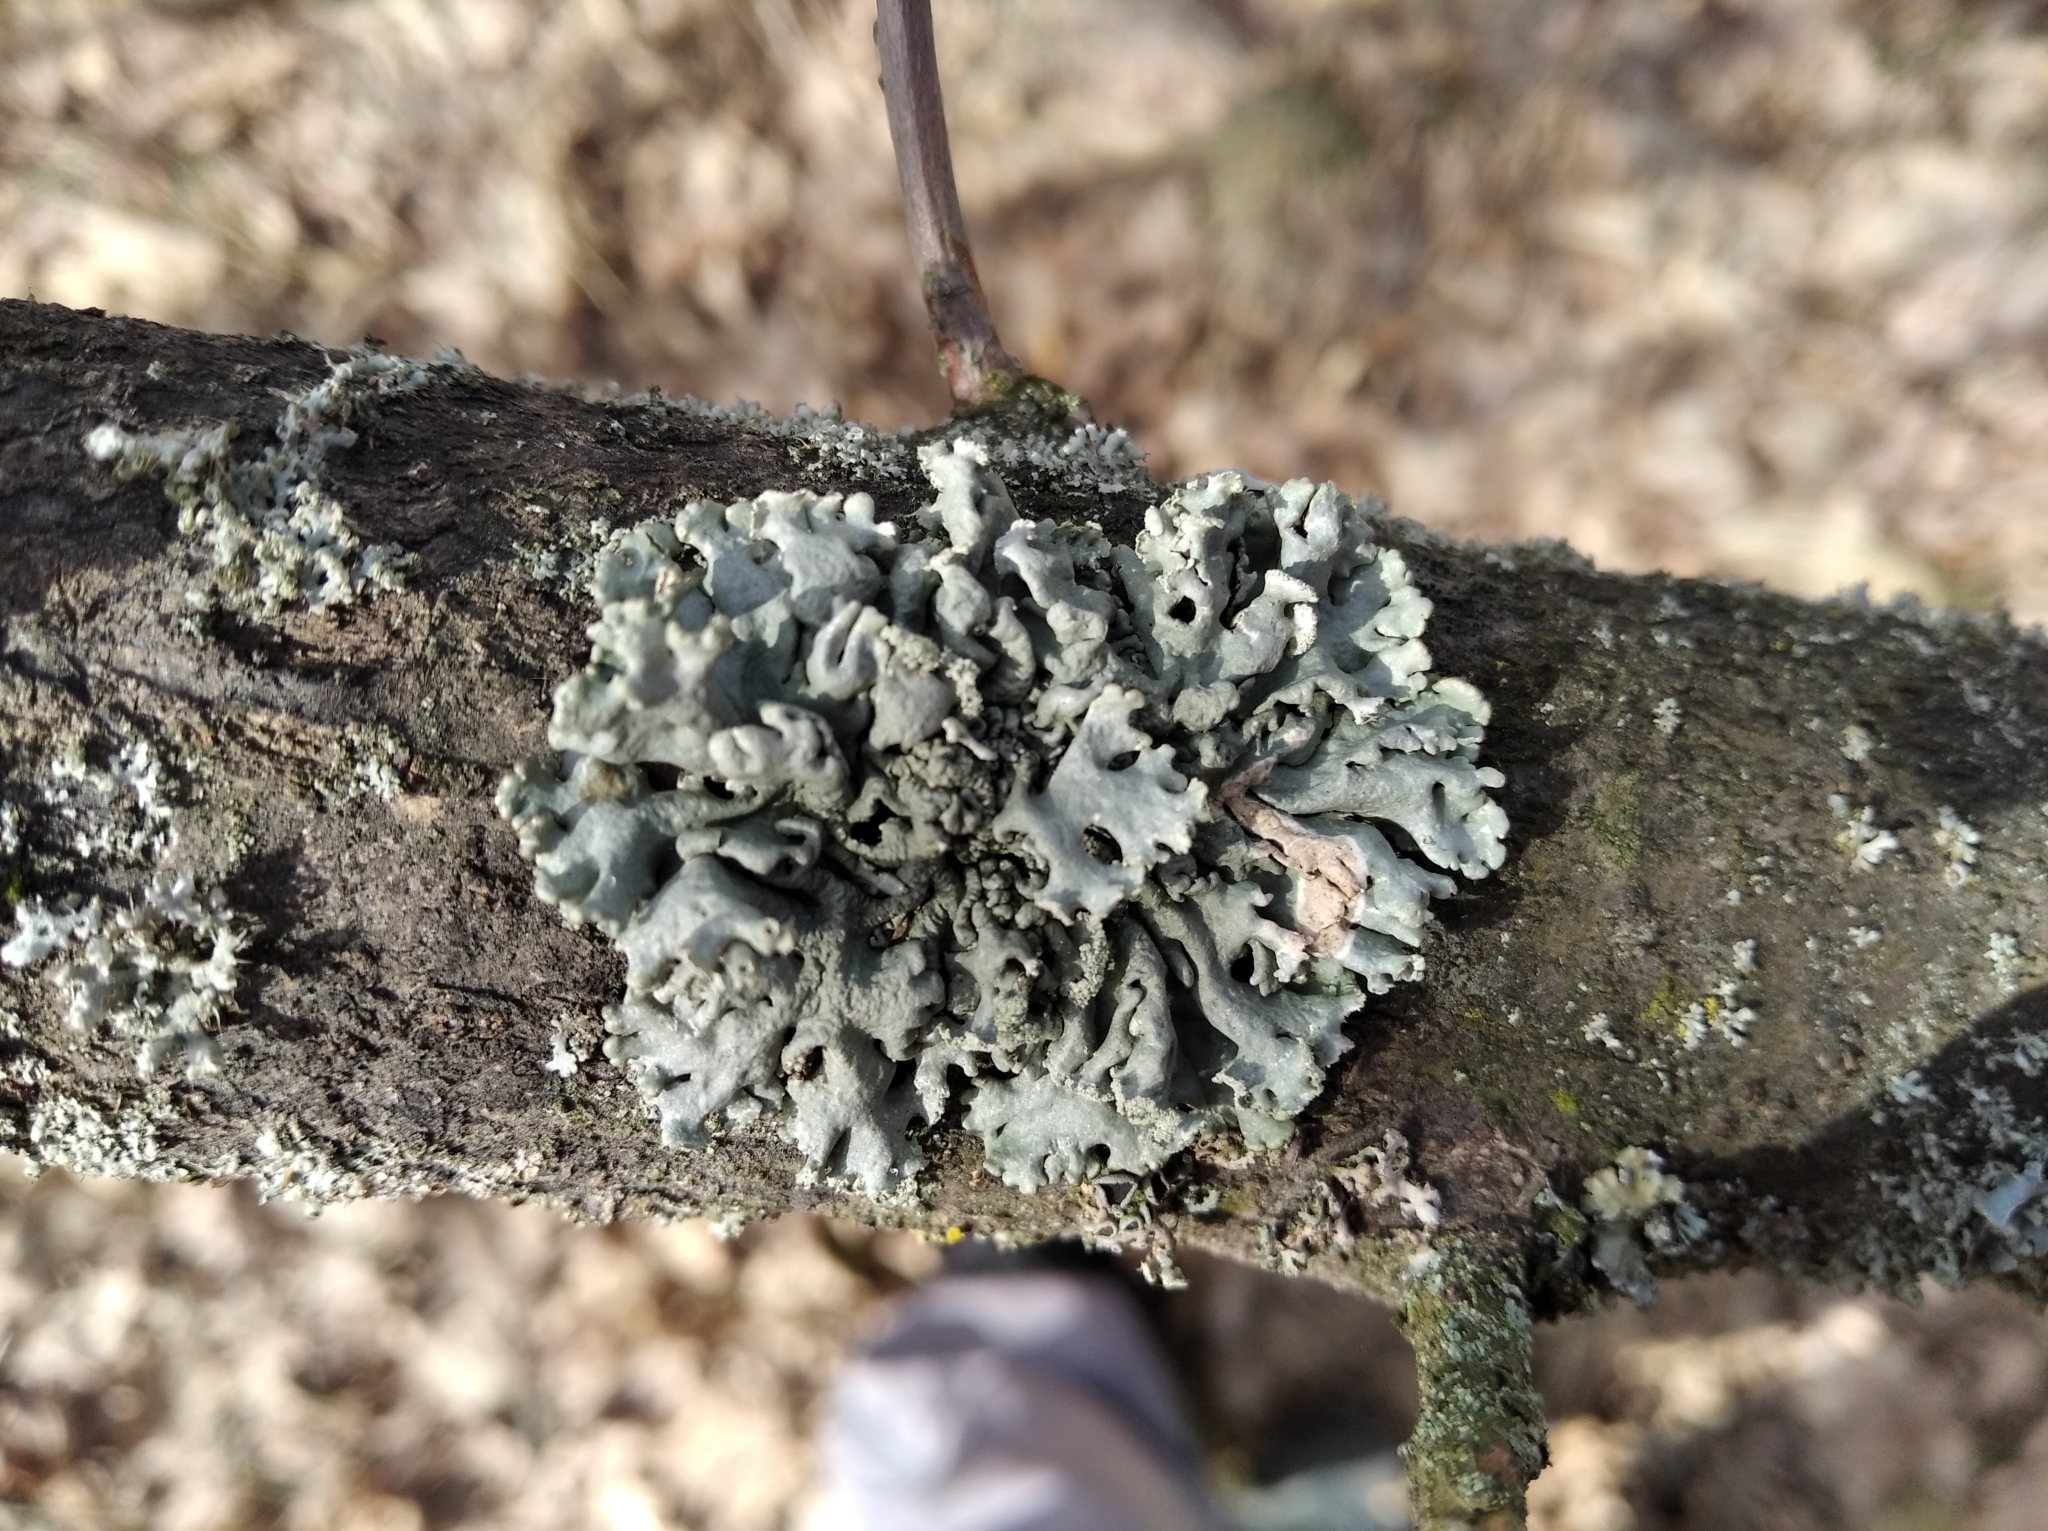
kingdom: Fungi
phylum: Ascomycota
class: Lecanoromycetes
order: Lecanorales
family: Parmeliaceae
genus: Hypogymnia
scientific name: Hypogymnia physodes
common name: Dark crottle
